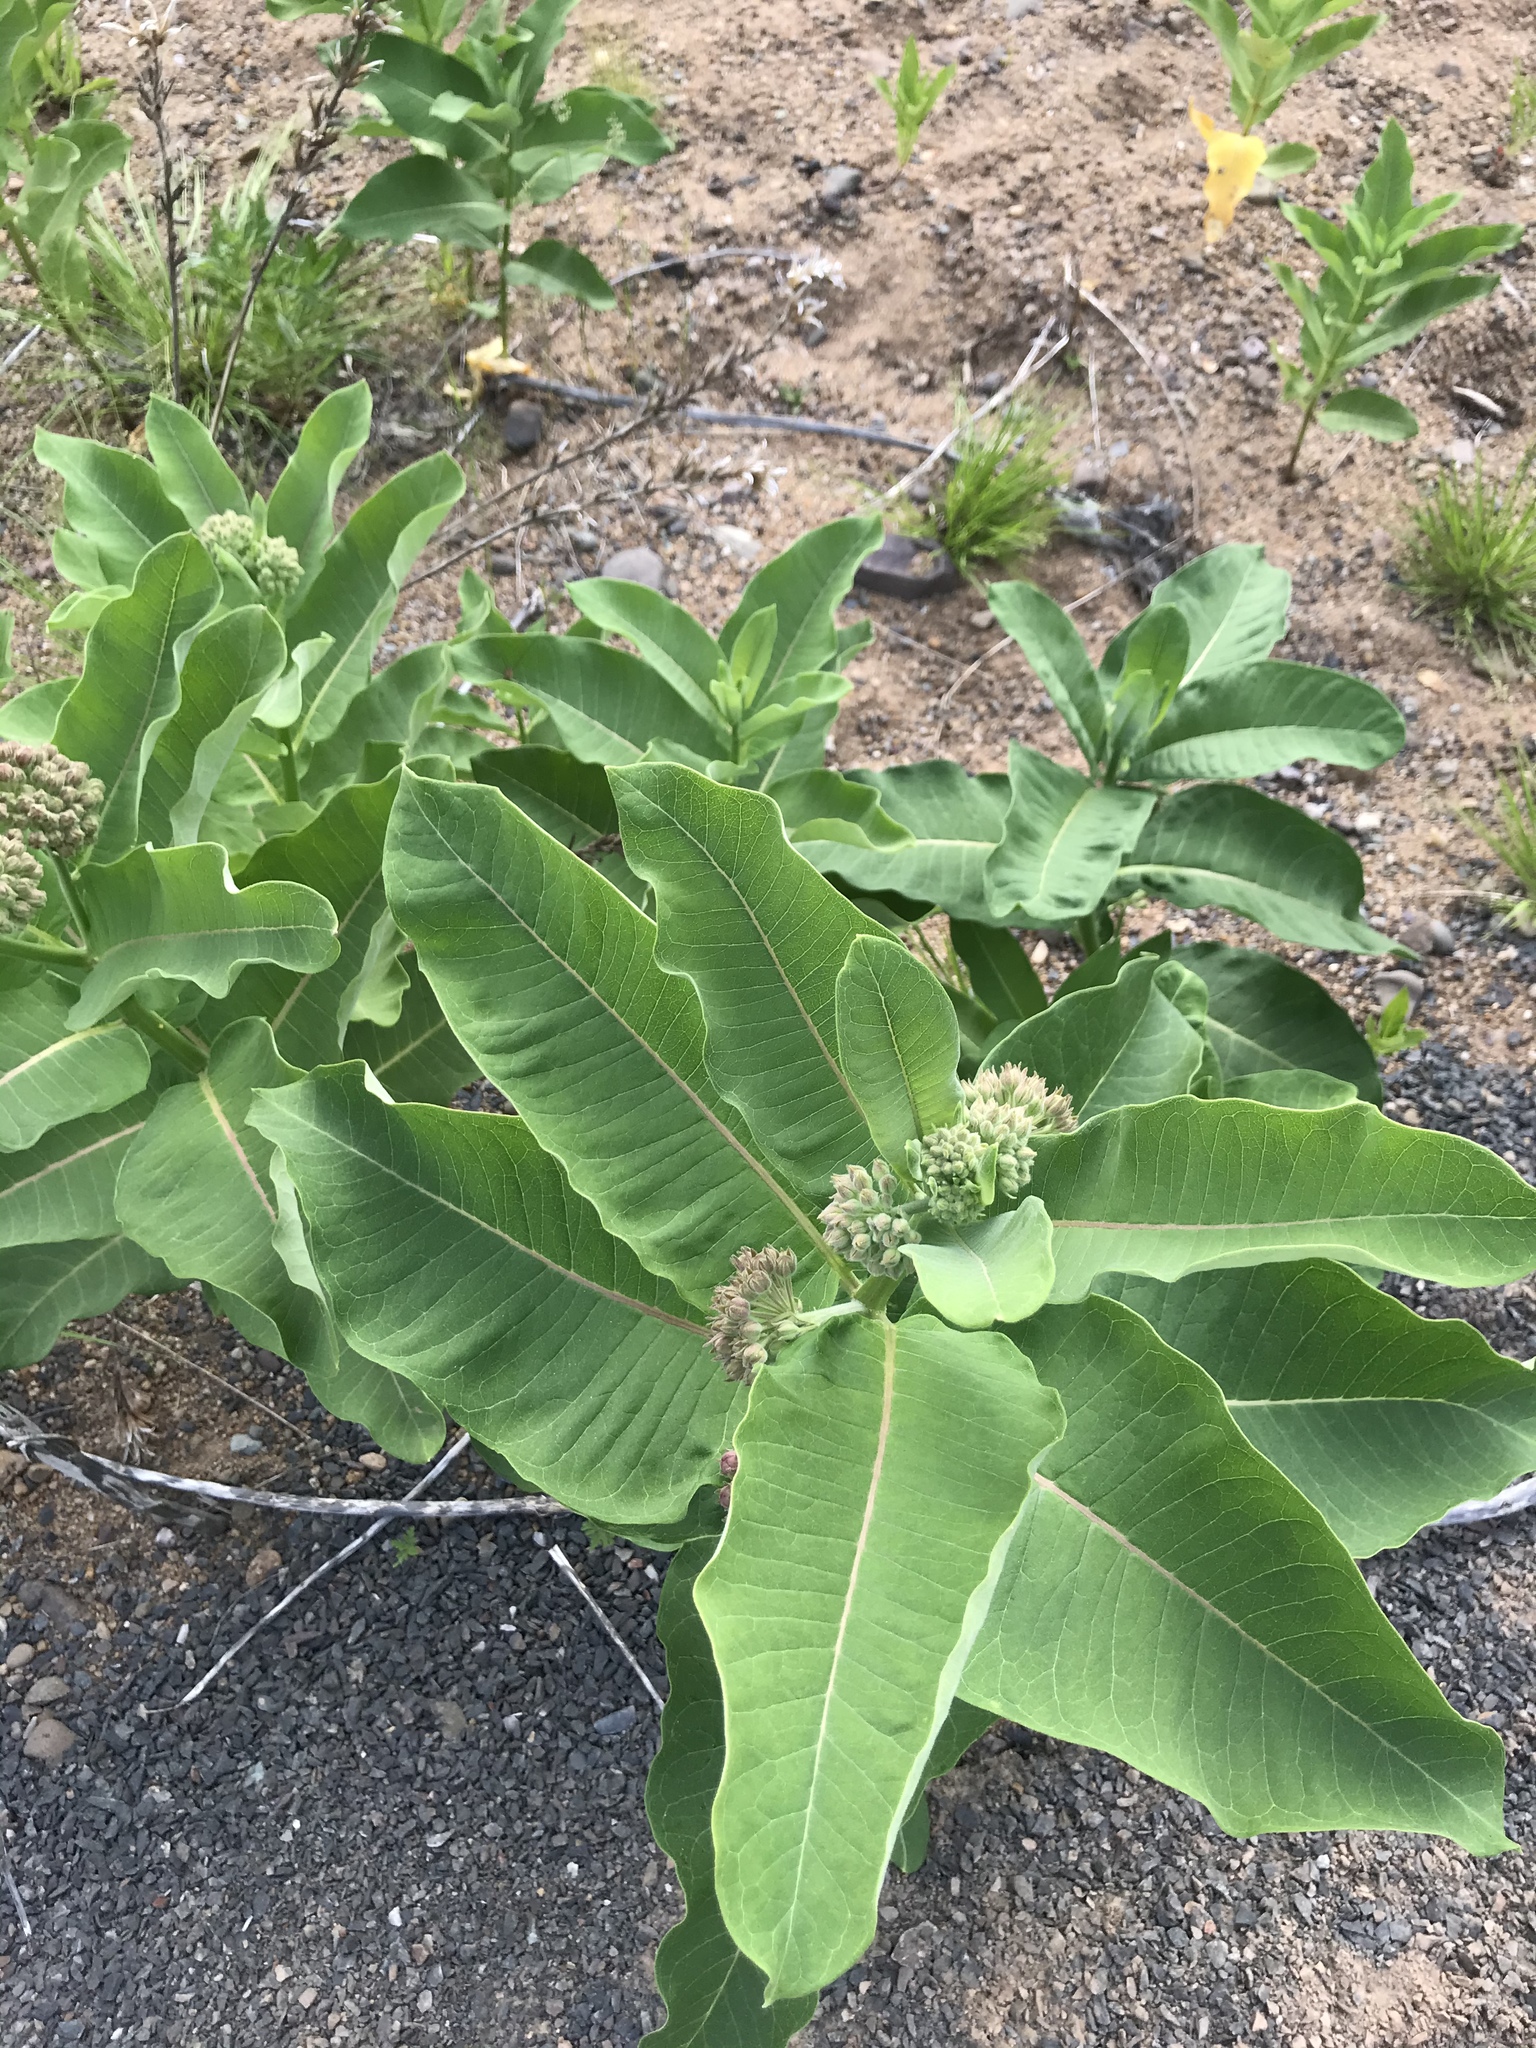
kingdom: Plantae
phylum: Tracheophyta
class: Magnoliopsida
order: Gentianales
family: Apocynaceae
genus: Asclepias
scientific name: Asclepias syriaca
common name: Common milkweed
